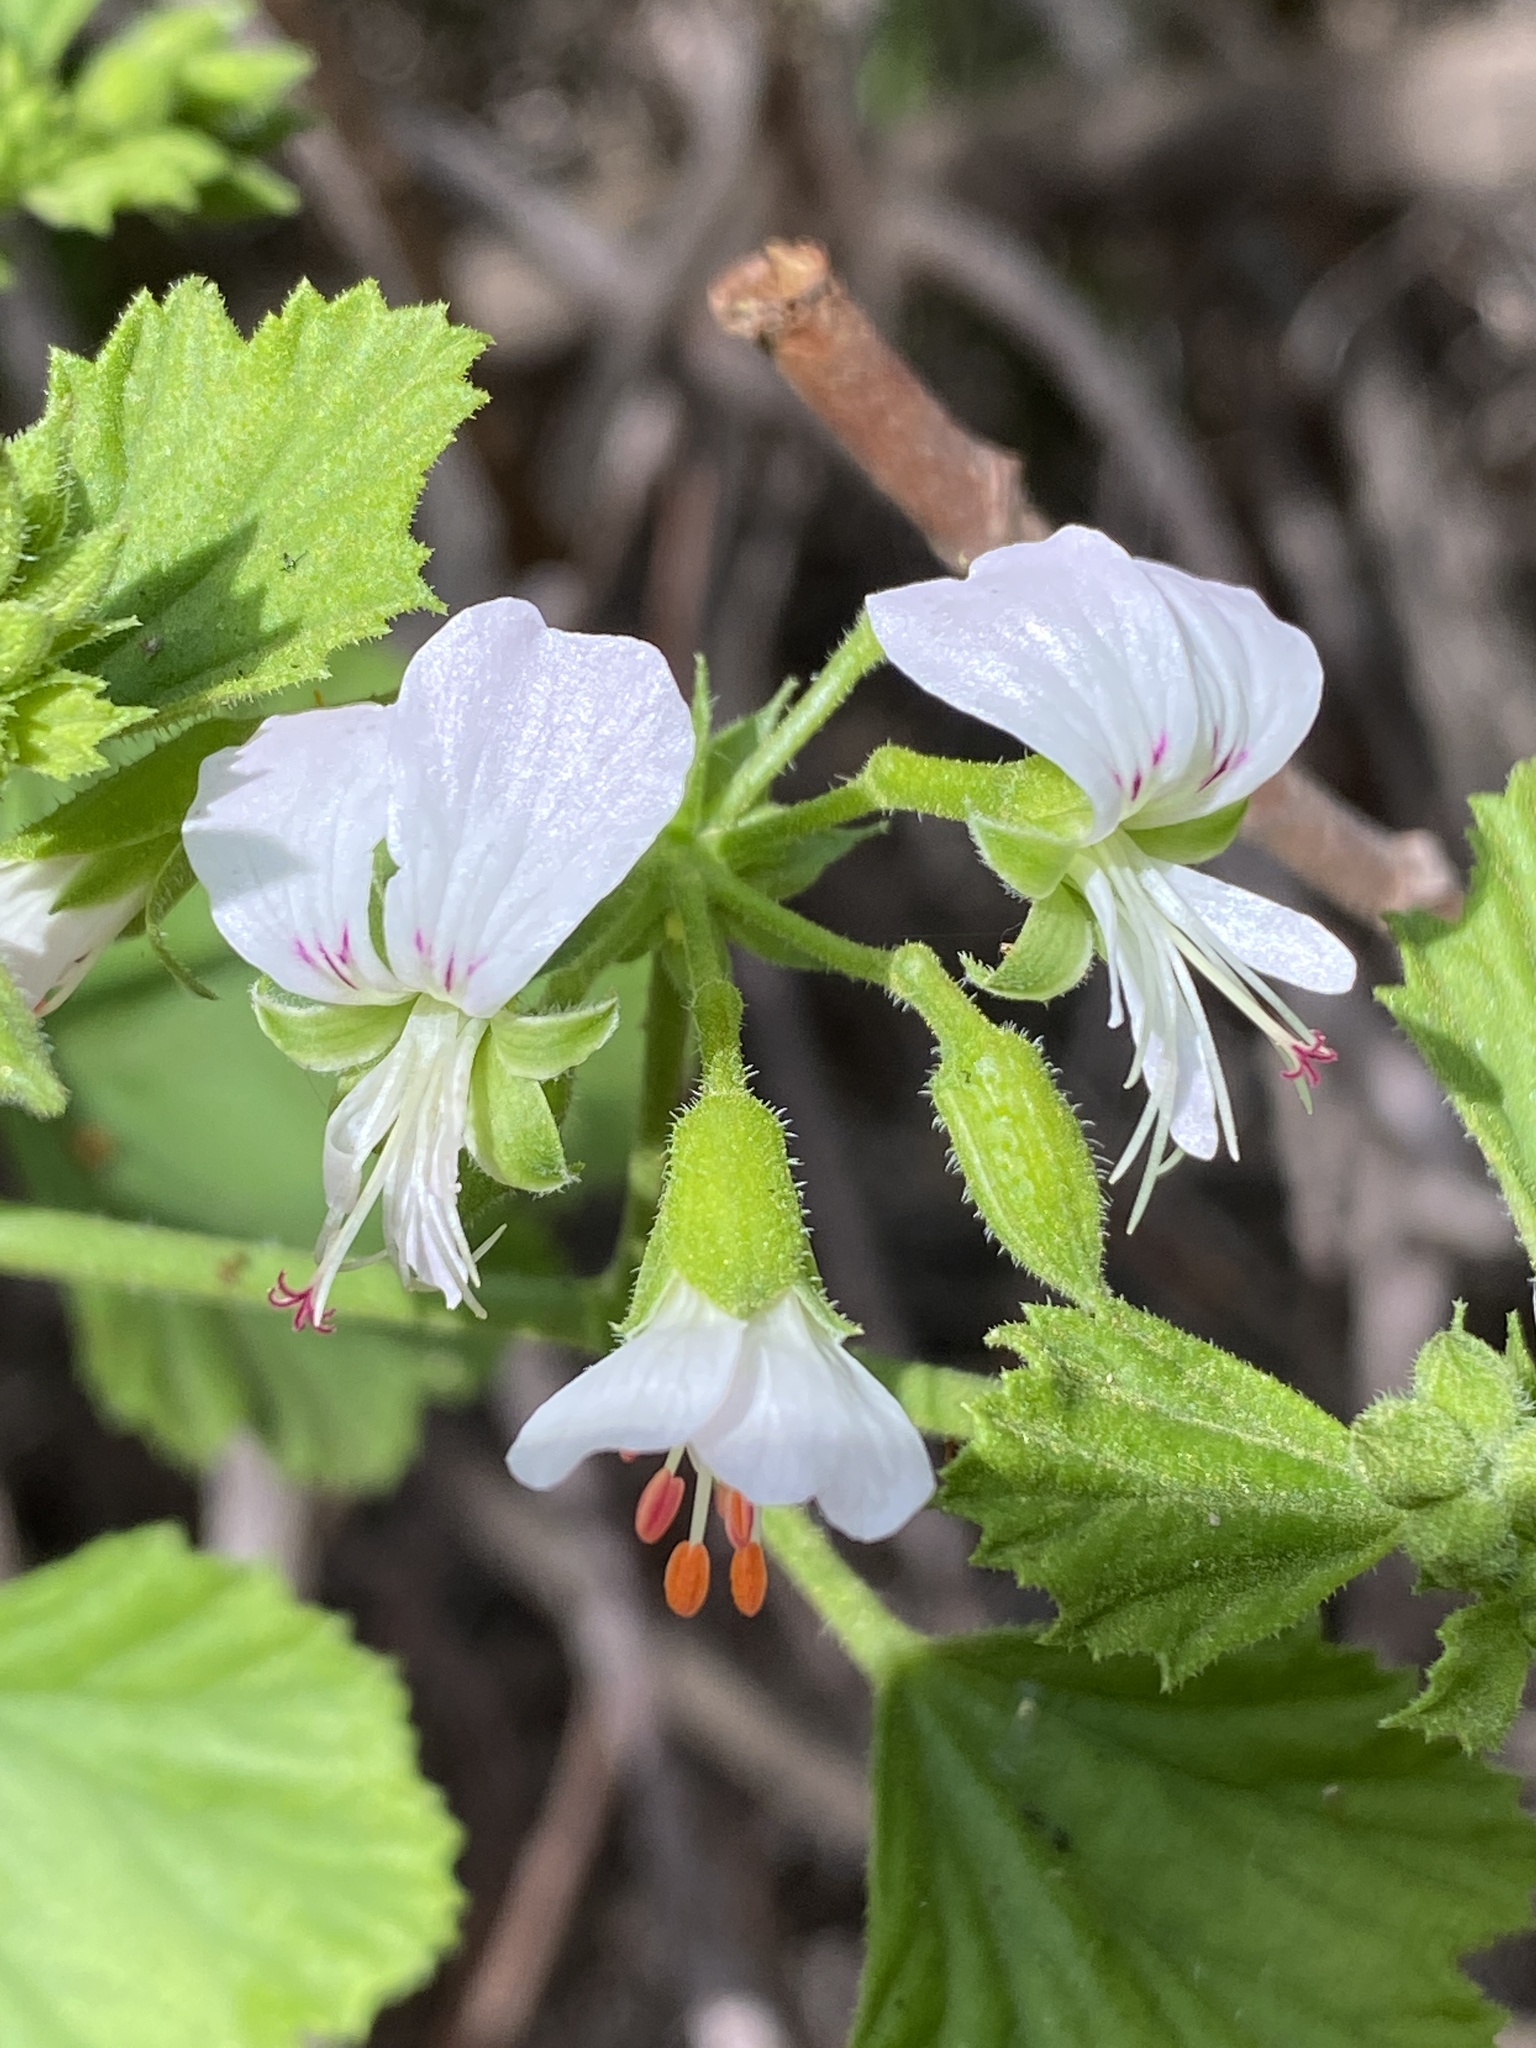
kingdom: Plantae
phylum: Tracheophyta
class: Magnoliopsida
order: Geraniales
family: Geraniaceae
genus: Pelargonium
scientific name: Pelargonium ribifolium
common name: Currant-leaf pelargonium
